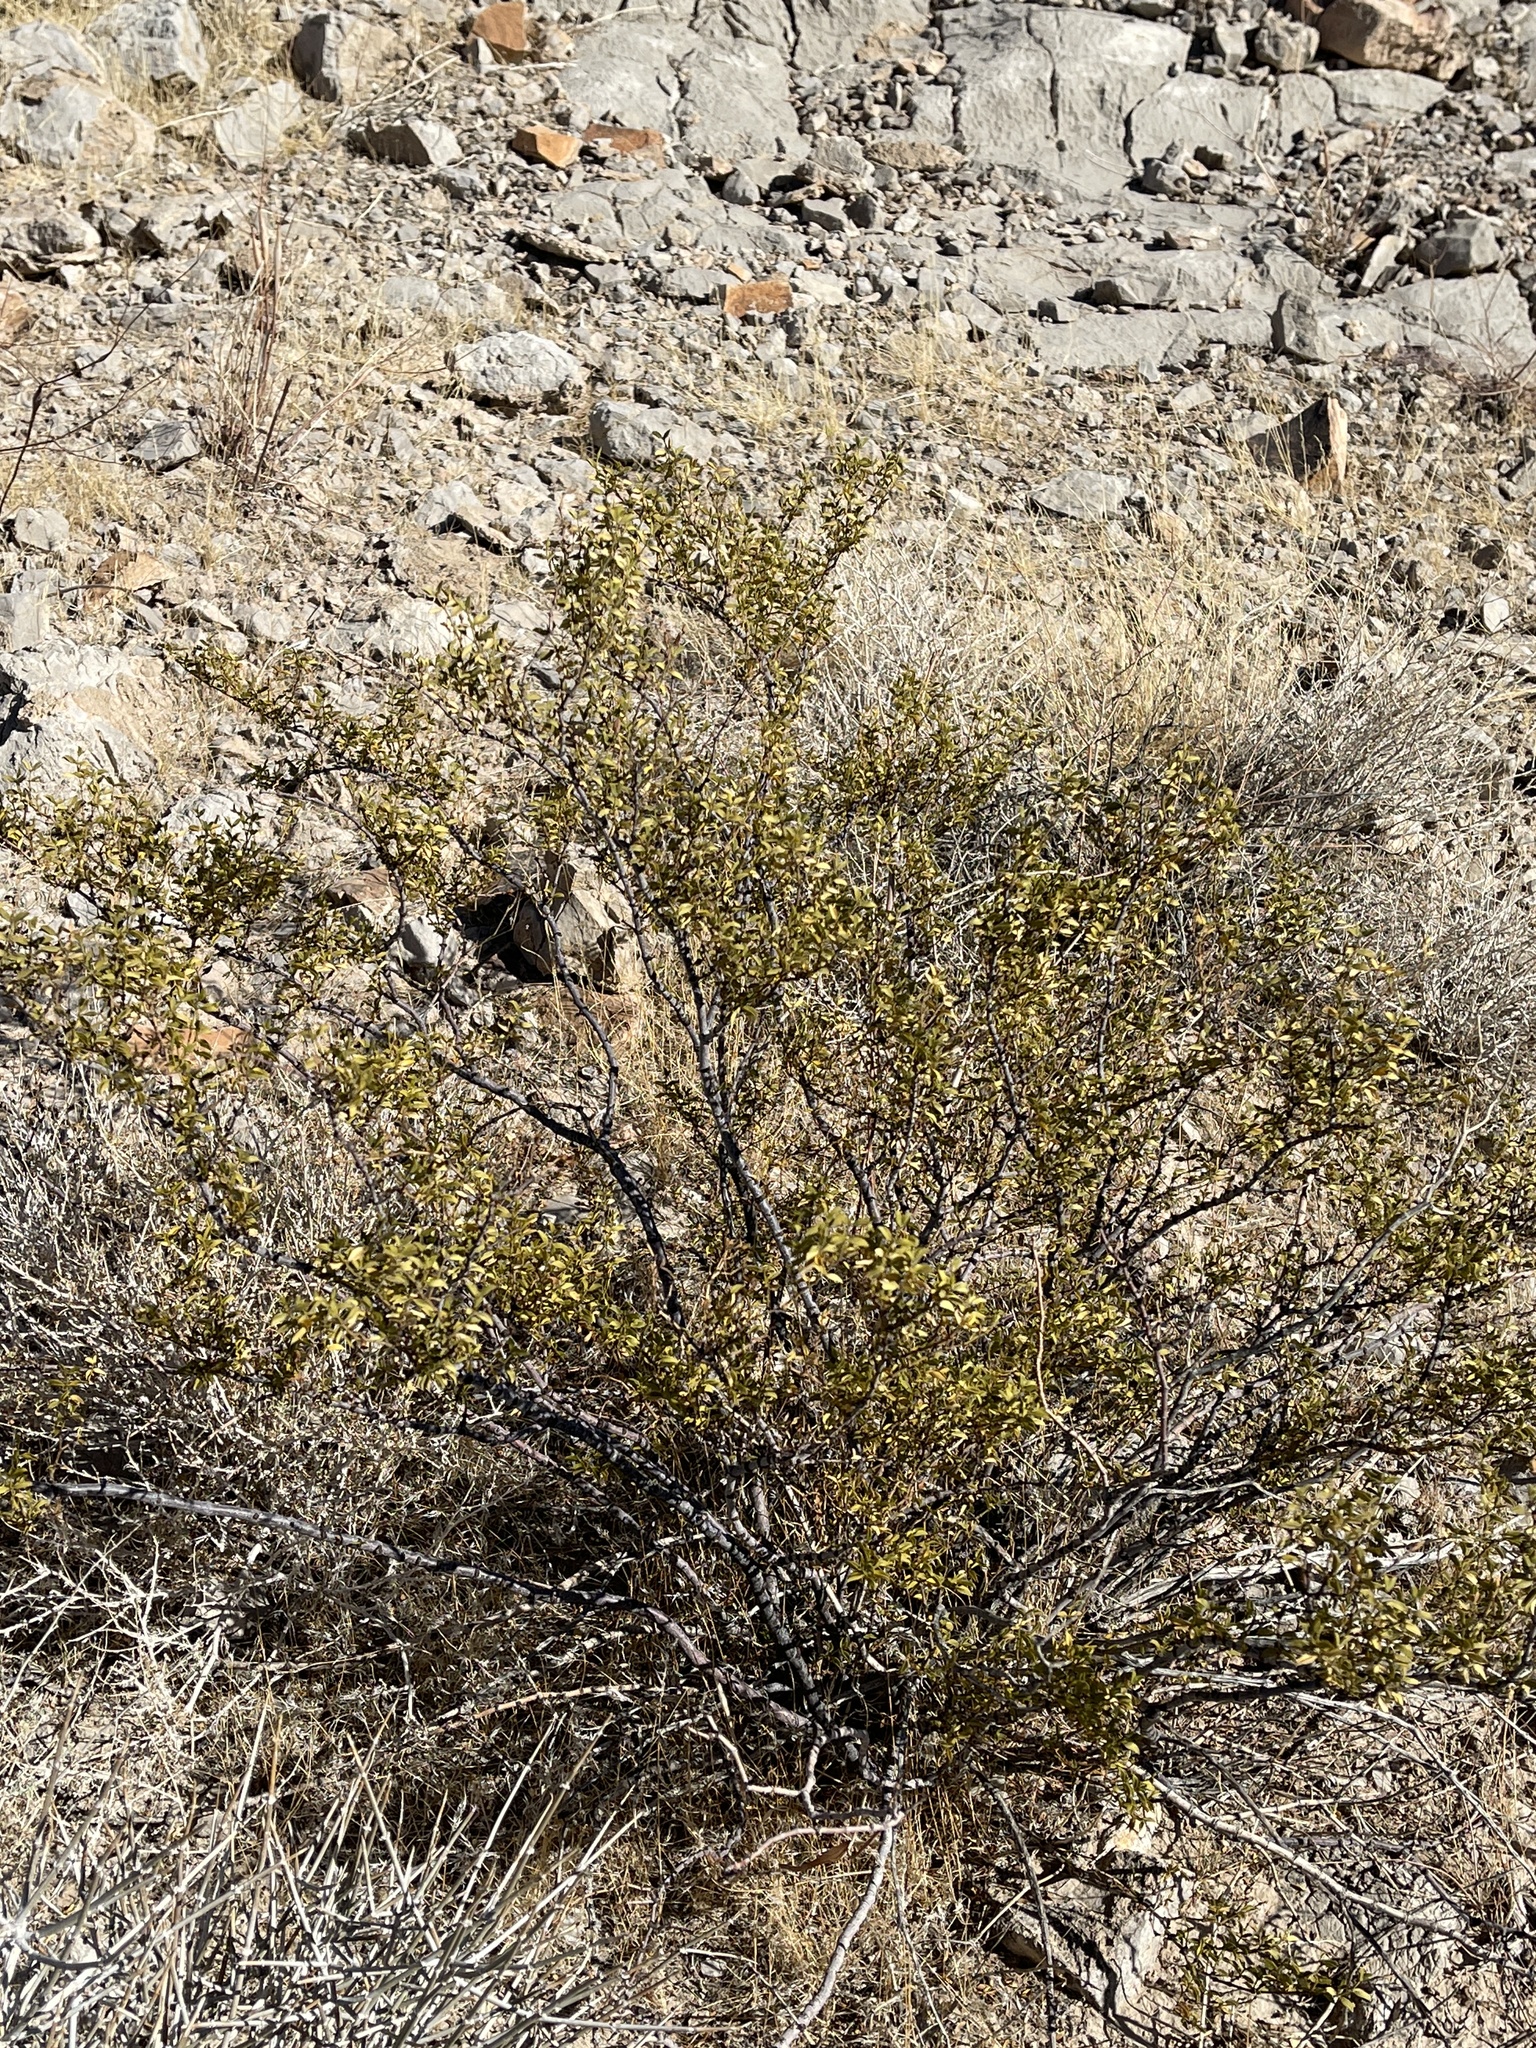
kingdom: Plantae
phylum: Tracheophyta
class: Magnoliopsida
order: Zygophyllales
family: Zygophyllaceae
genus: Larrea
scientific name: Larrea tridentata
